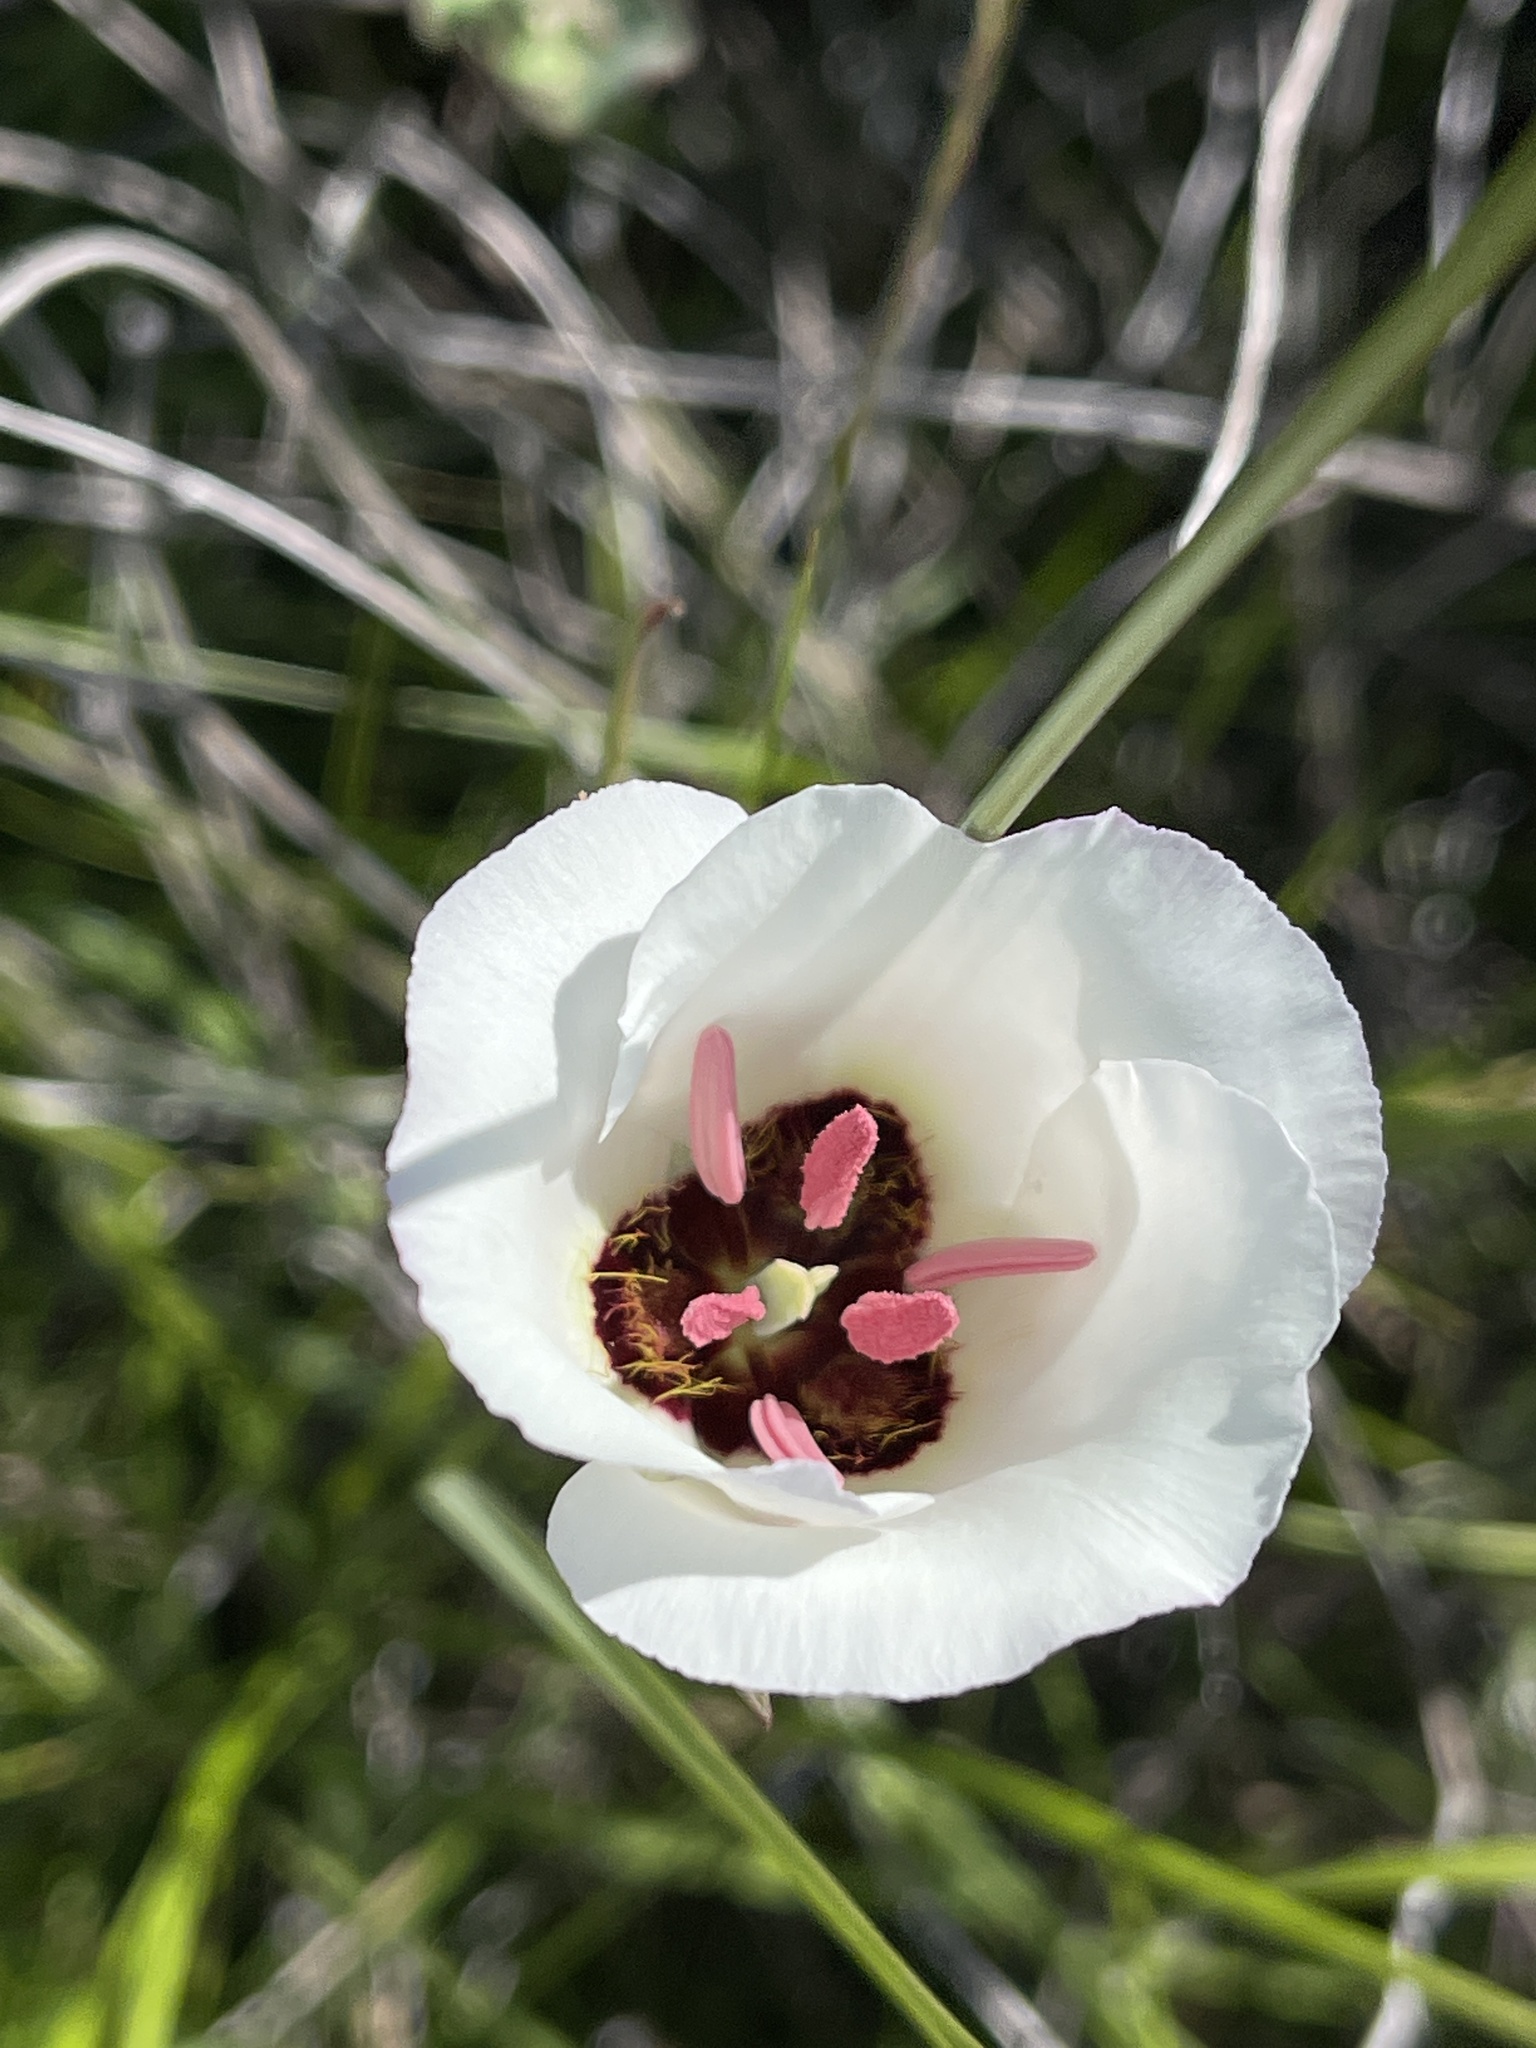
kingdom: Plantae
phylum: Tracheophyta
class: Liliopsida
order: Liliales
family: Liliaceae
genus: Calochortus
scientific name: Calochortus catalinae
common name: Catalina mariposa-lily
